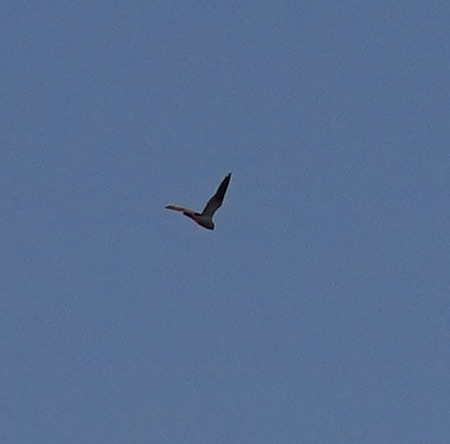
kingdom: Animalia
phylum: Chordata
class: Aves
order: Accipitriformes
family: Accipitridae
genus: Elanus
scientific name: Elanus leucurus
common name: White-tailed kite
